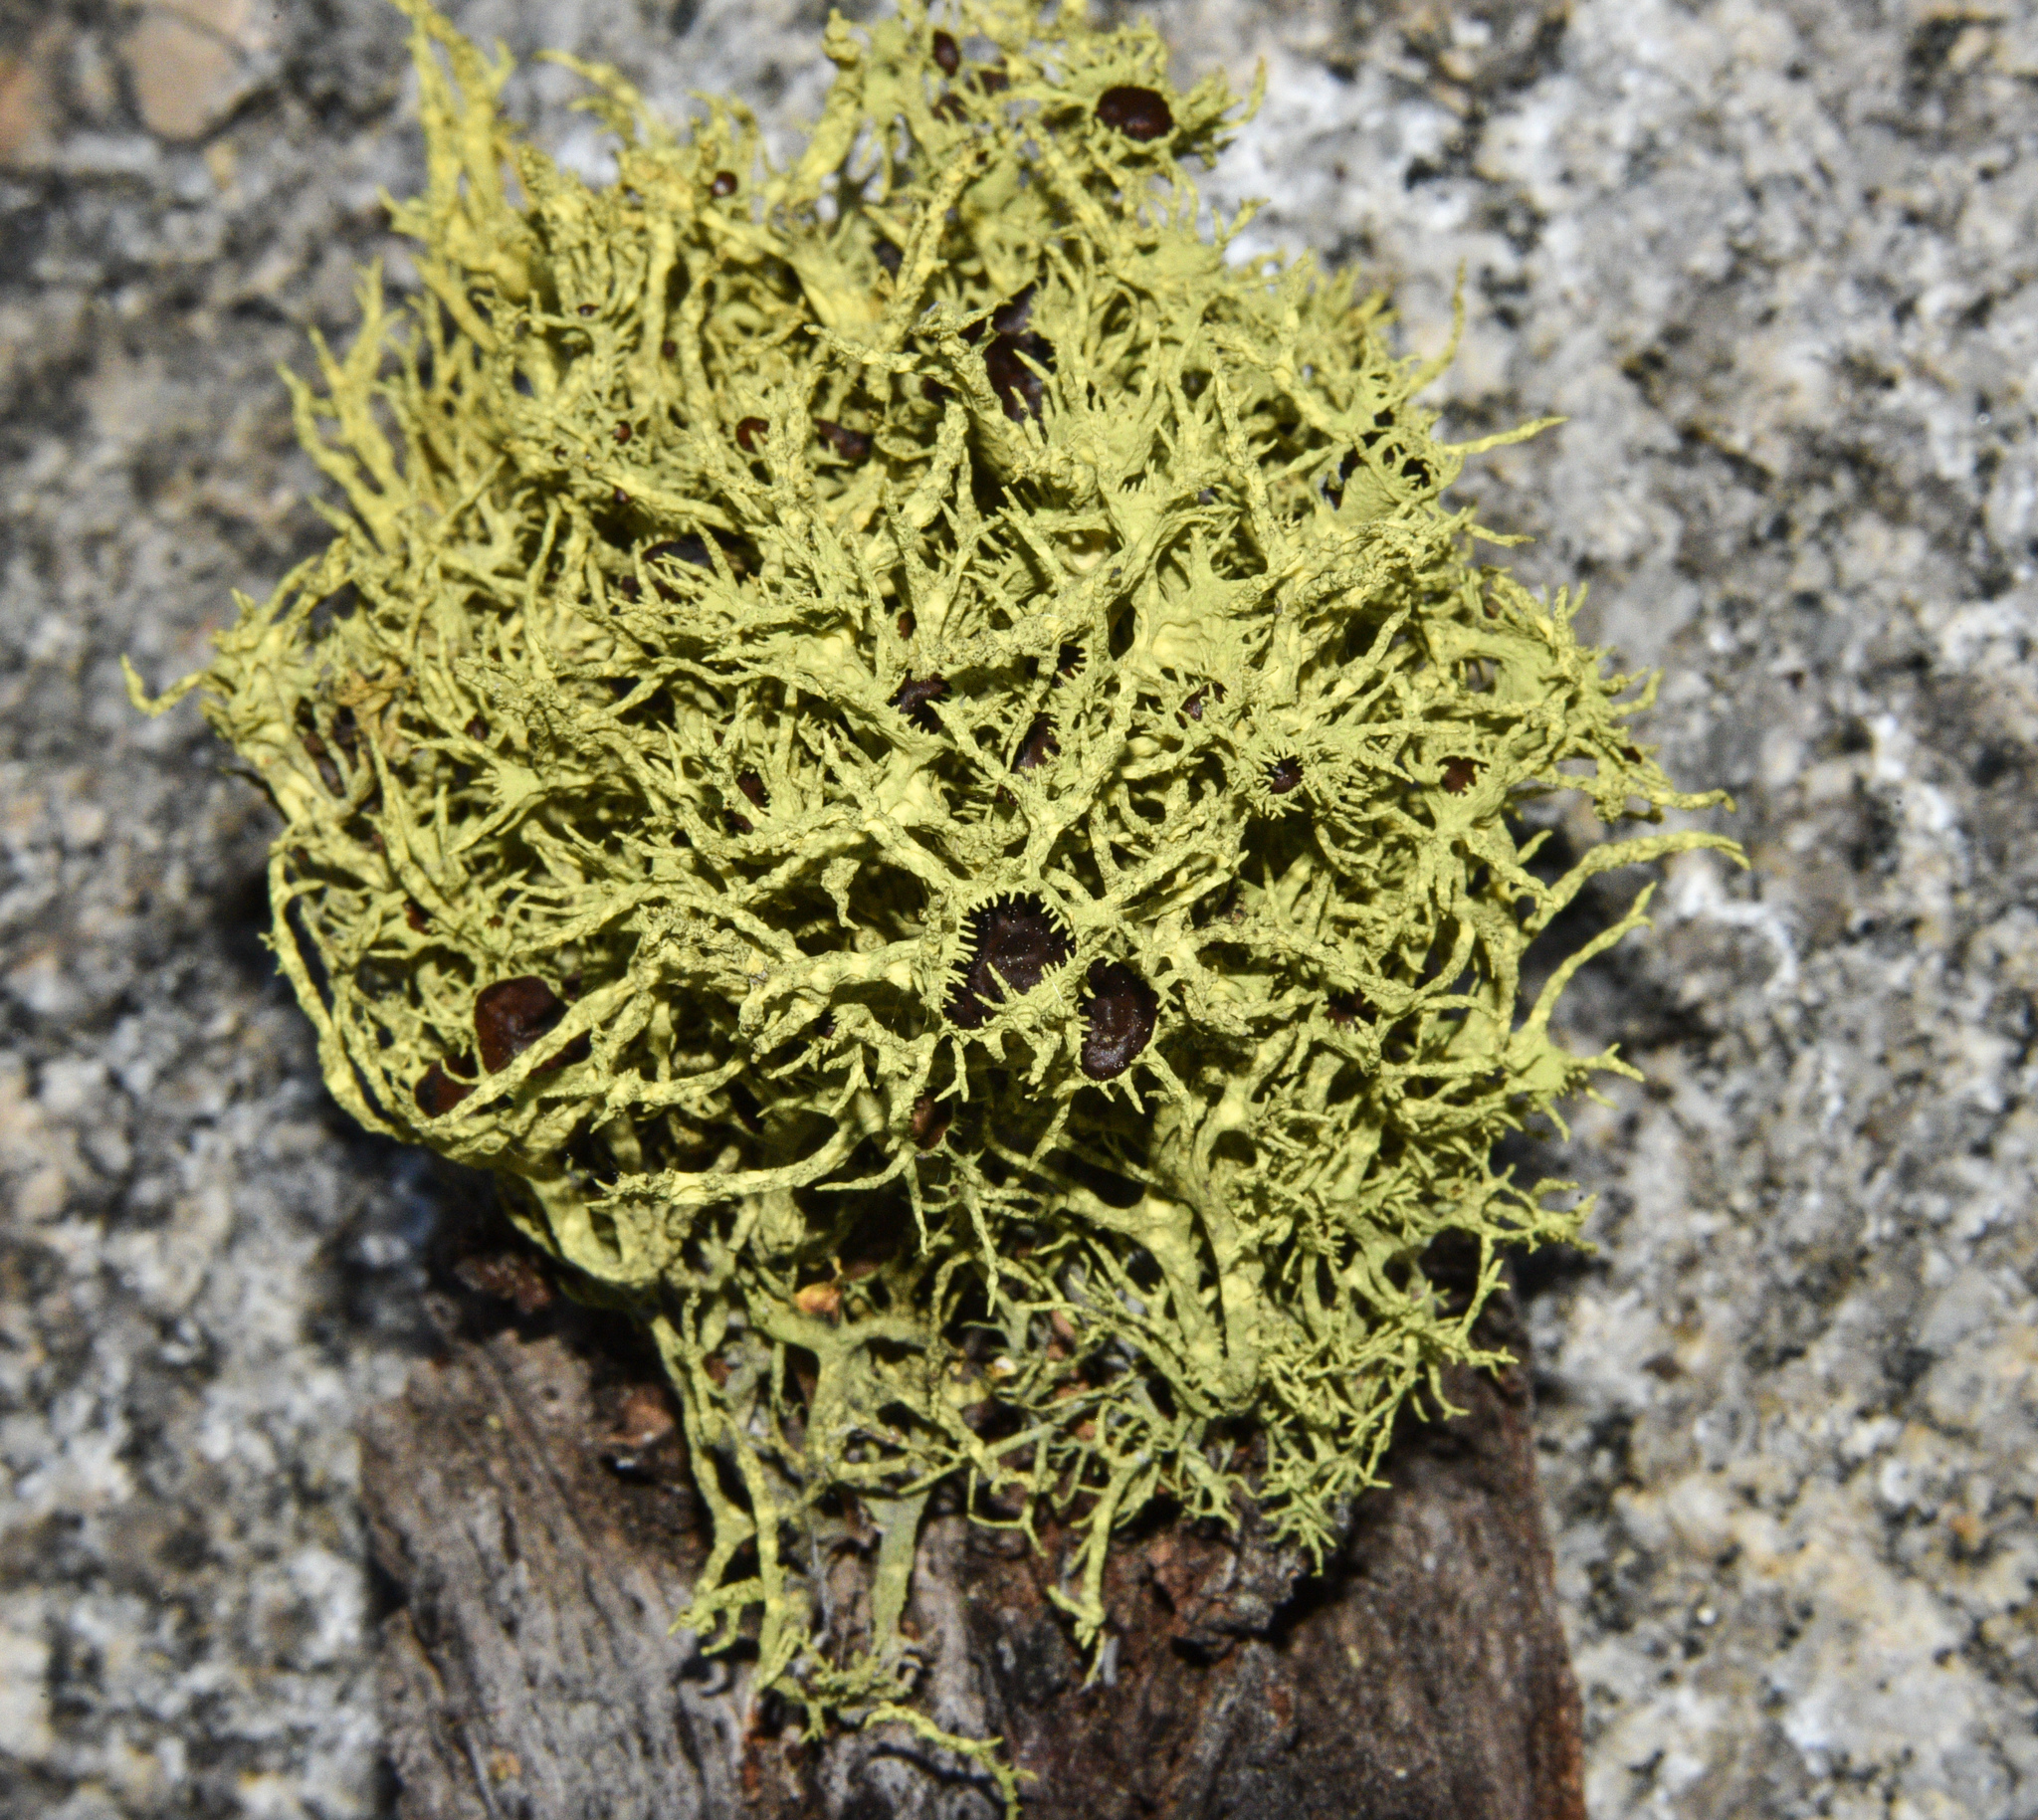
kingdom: Fungi
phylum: Ascomycota
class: Lecanoromycetes
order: Lecanorales
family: Parmeliaceae
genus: Letharia
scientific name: Letharia columbiana
